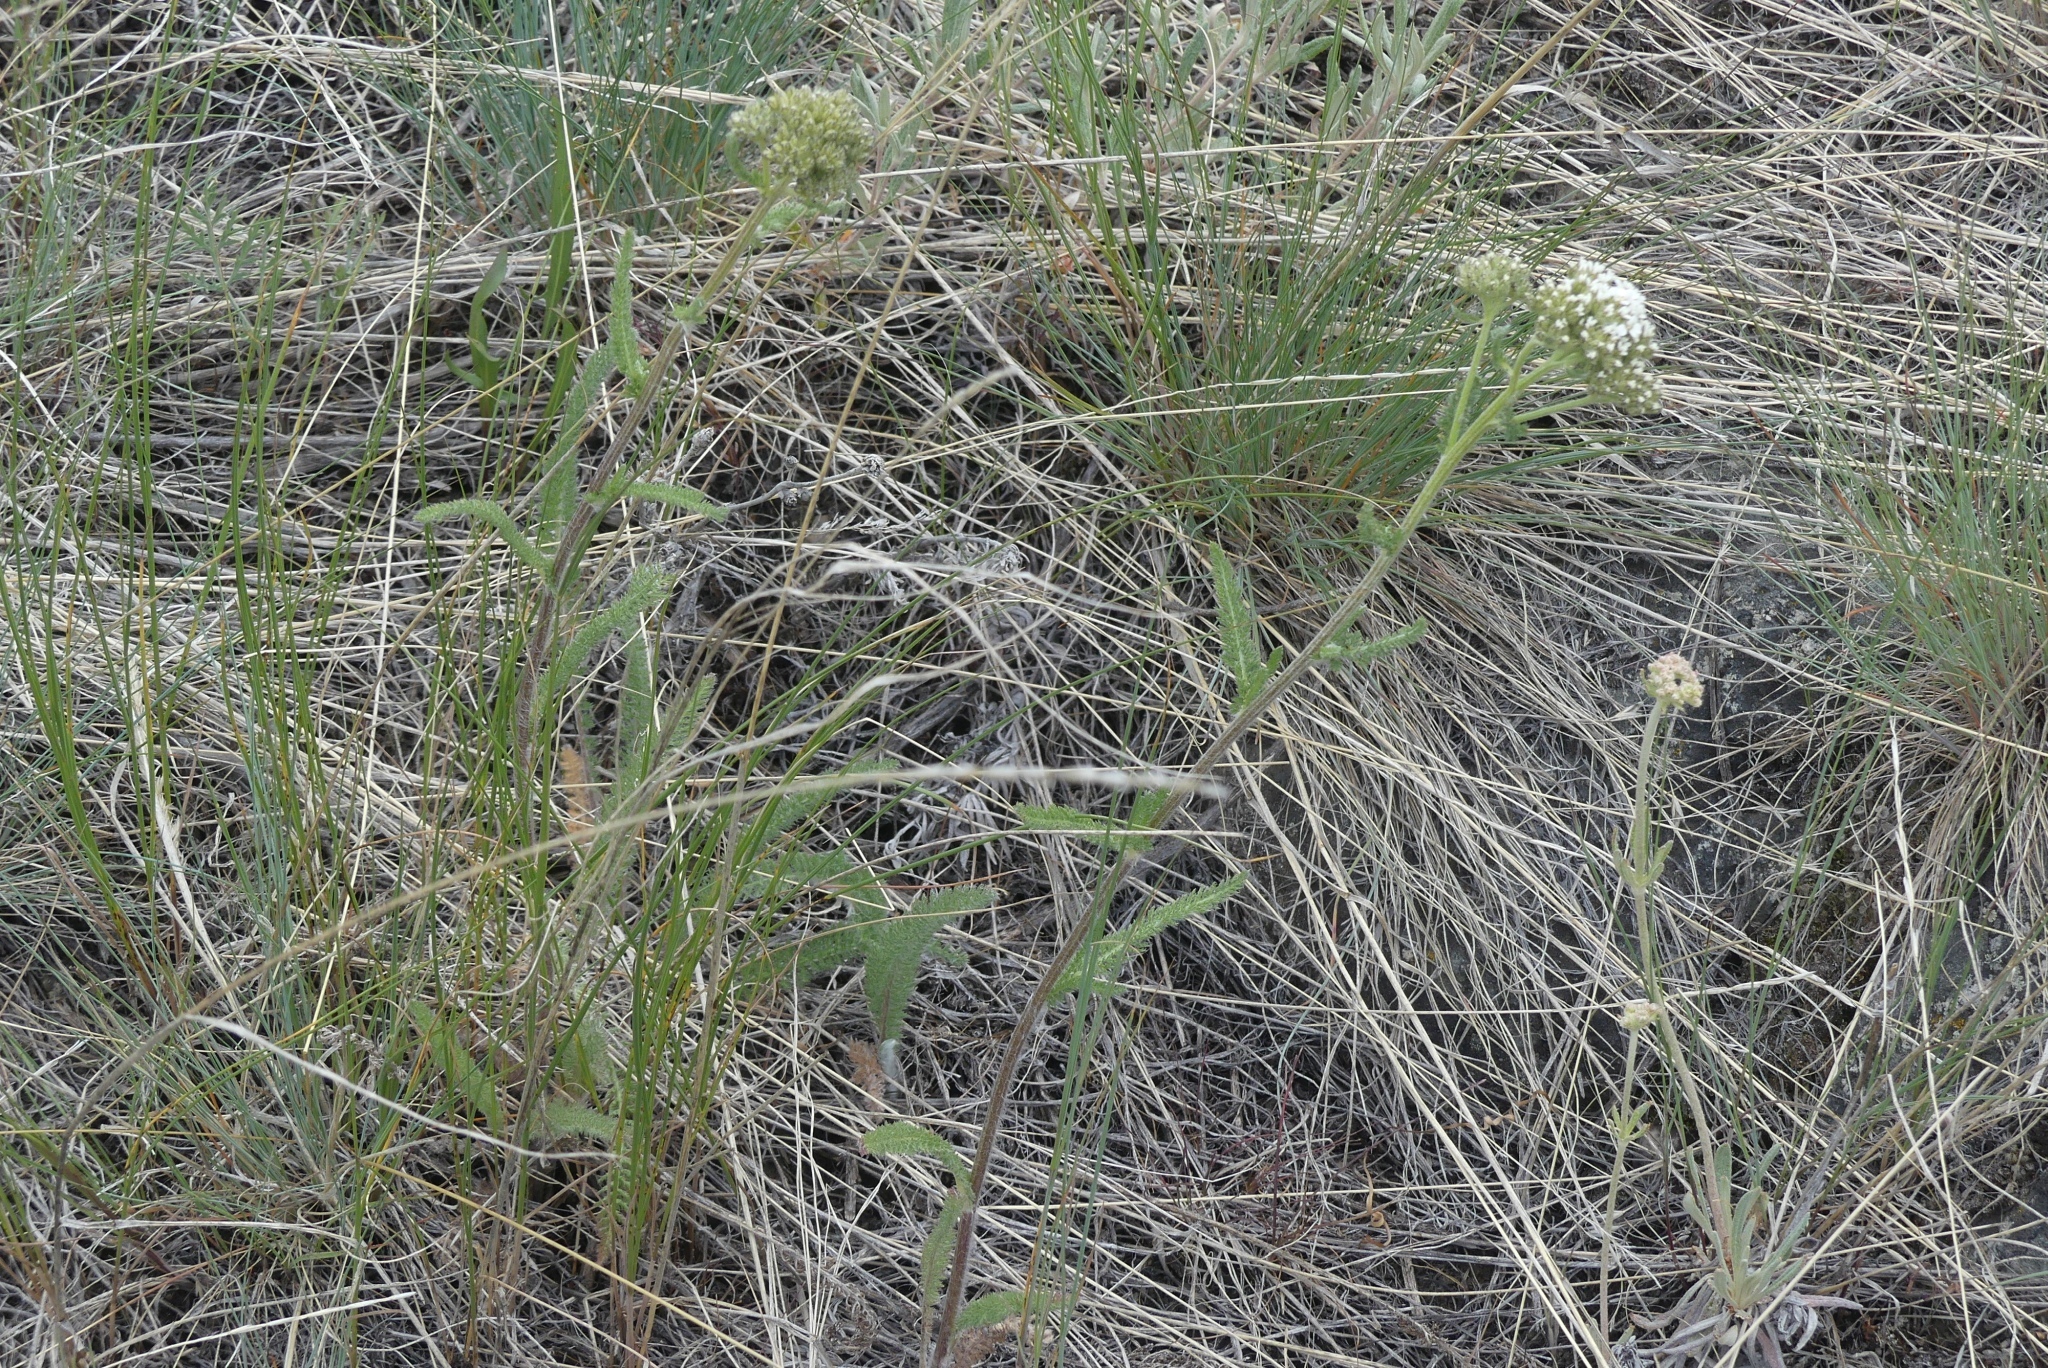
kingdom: Plantae
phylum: Tracheophyta
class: Magnoliopsida
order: Asterales
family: Asteraceae
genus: Achillea
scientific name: Achillea millefolium
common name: Yarrow
